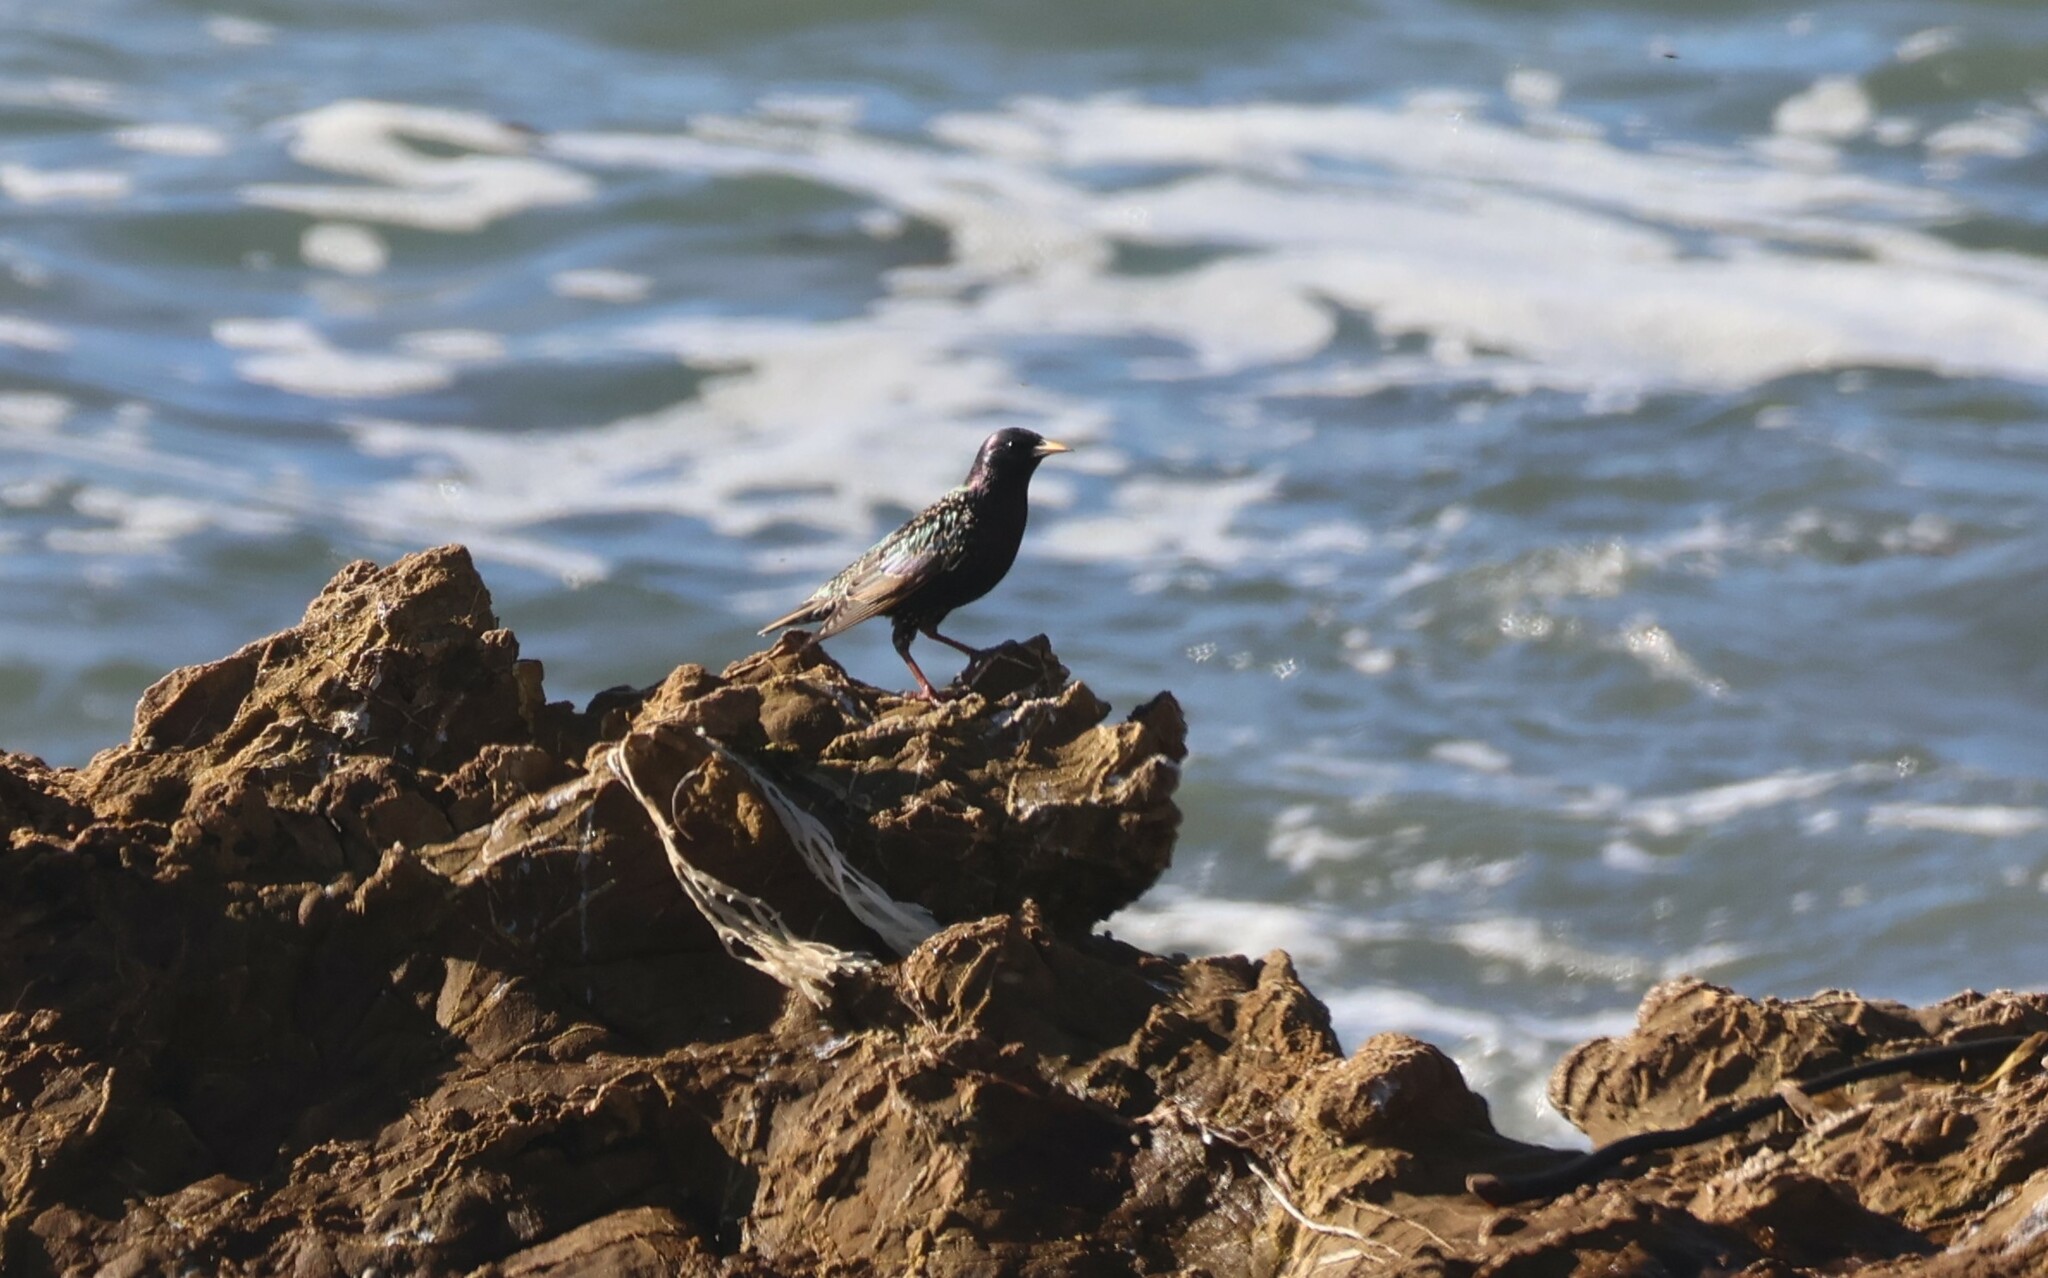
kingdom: Animalia
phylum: Chordata
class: Aves
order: Passeriformes
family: Sturnidae
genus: Sturnus
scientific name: Sturnus vulgaris
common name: Common starling
